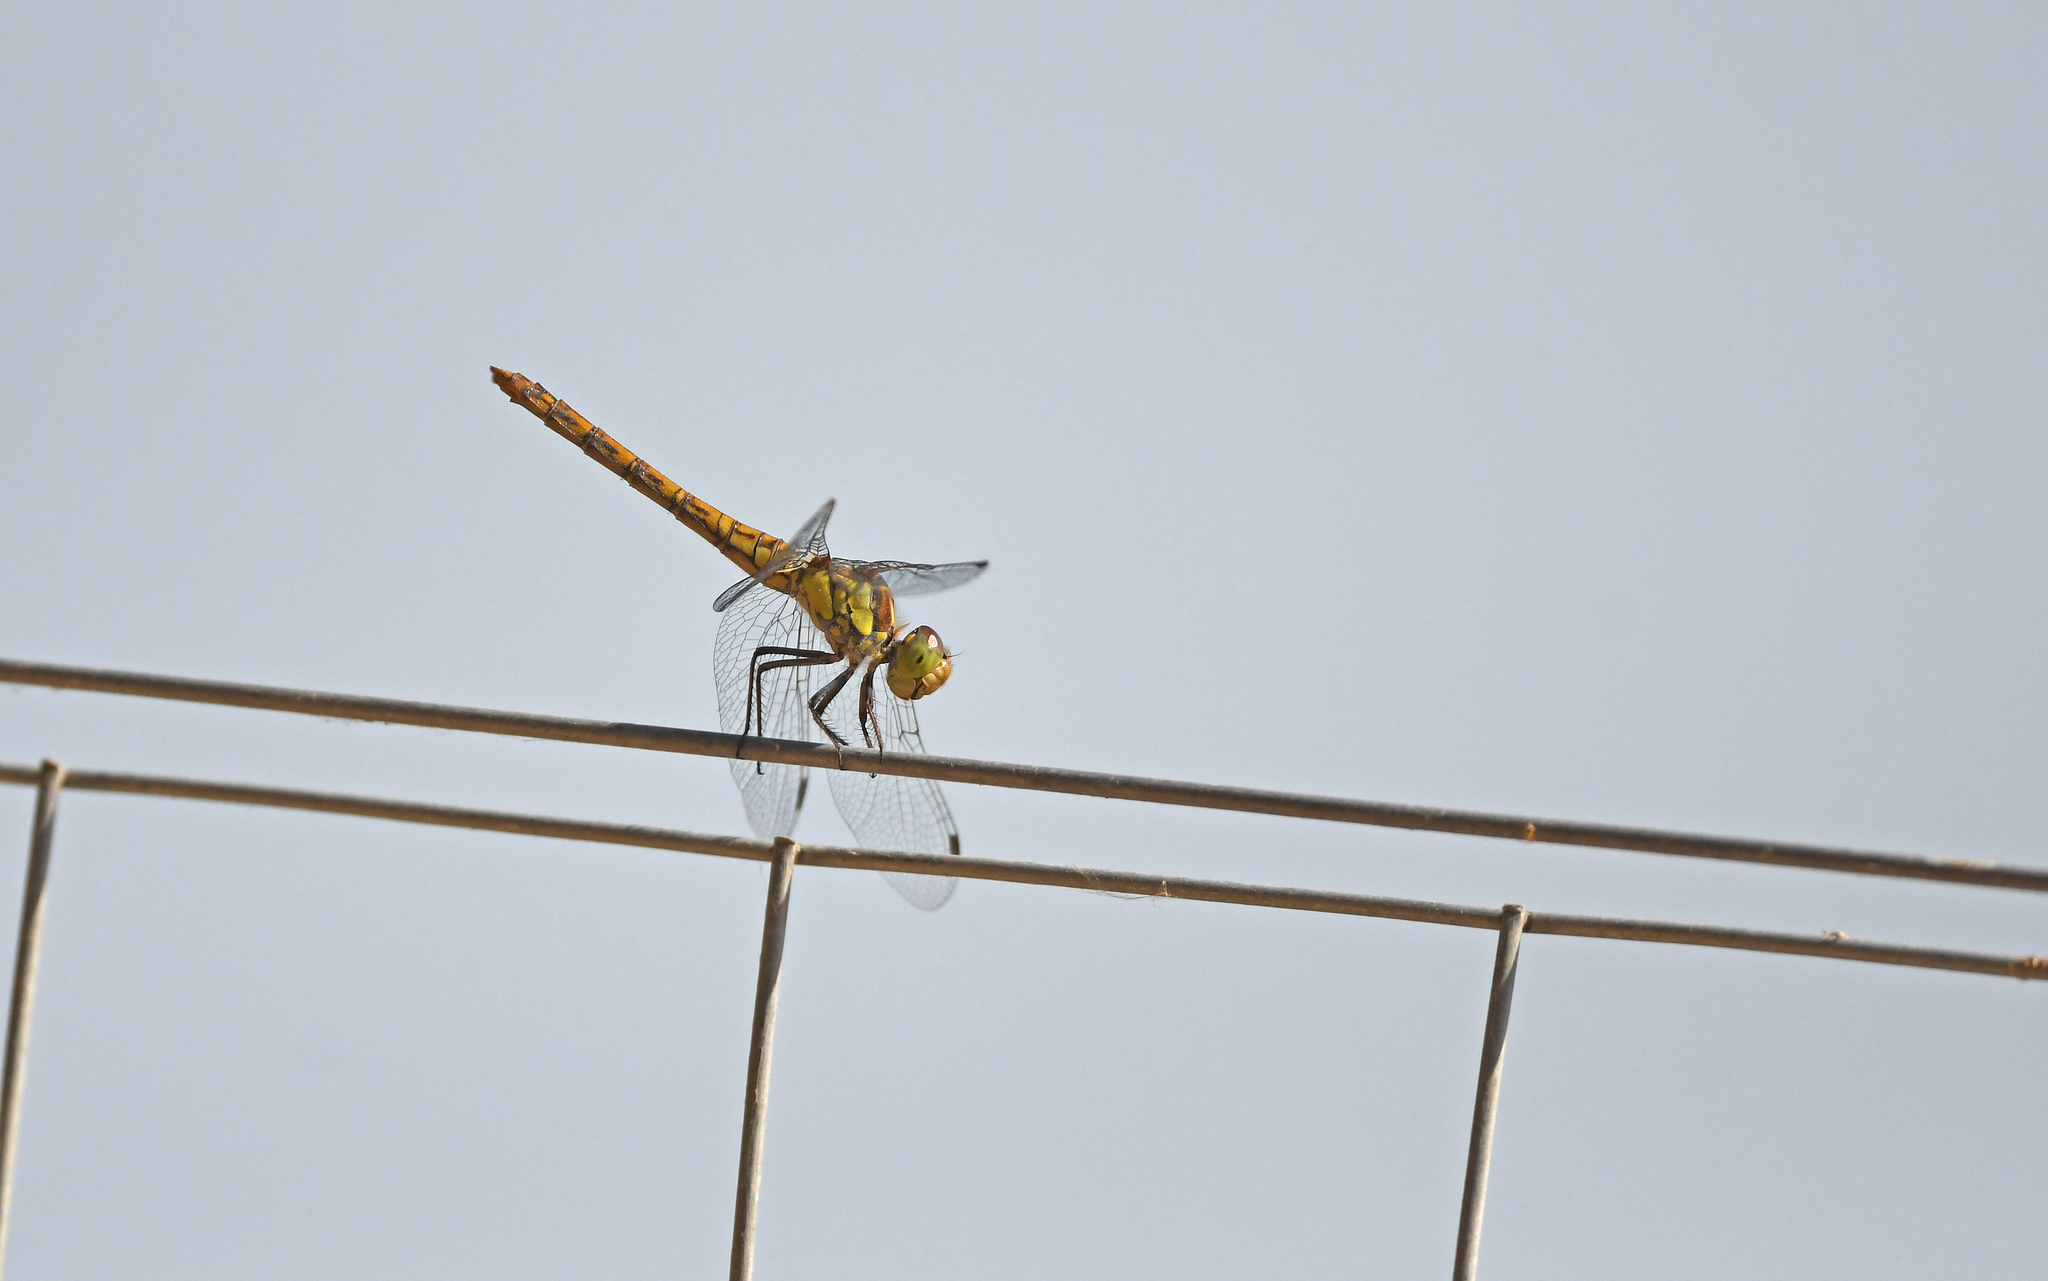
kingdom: Animalia
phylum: Arthropoda
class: Insecta
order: Odonata
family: Libellulidae
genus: Sympetrum
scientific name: Sympetrum striolatum
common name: Common darter
